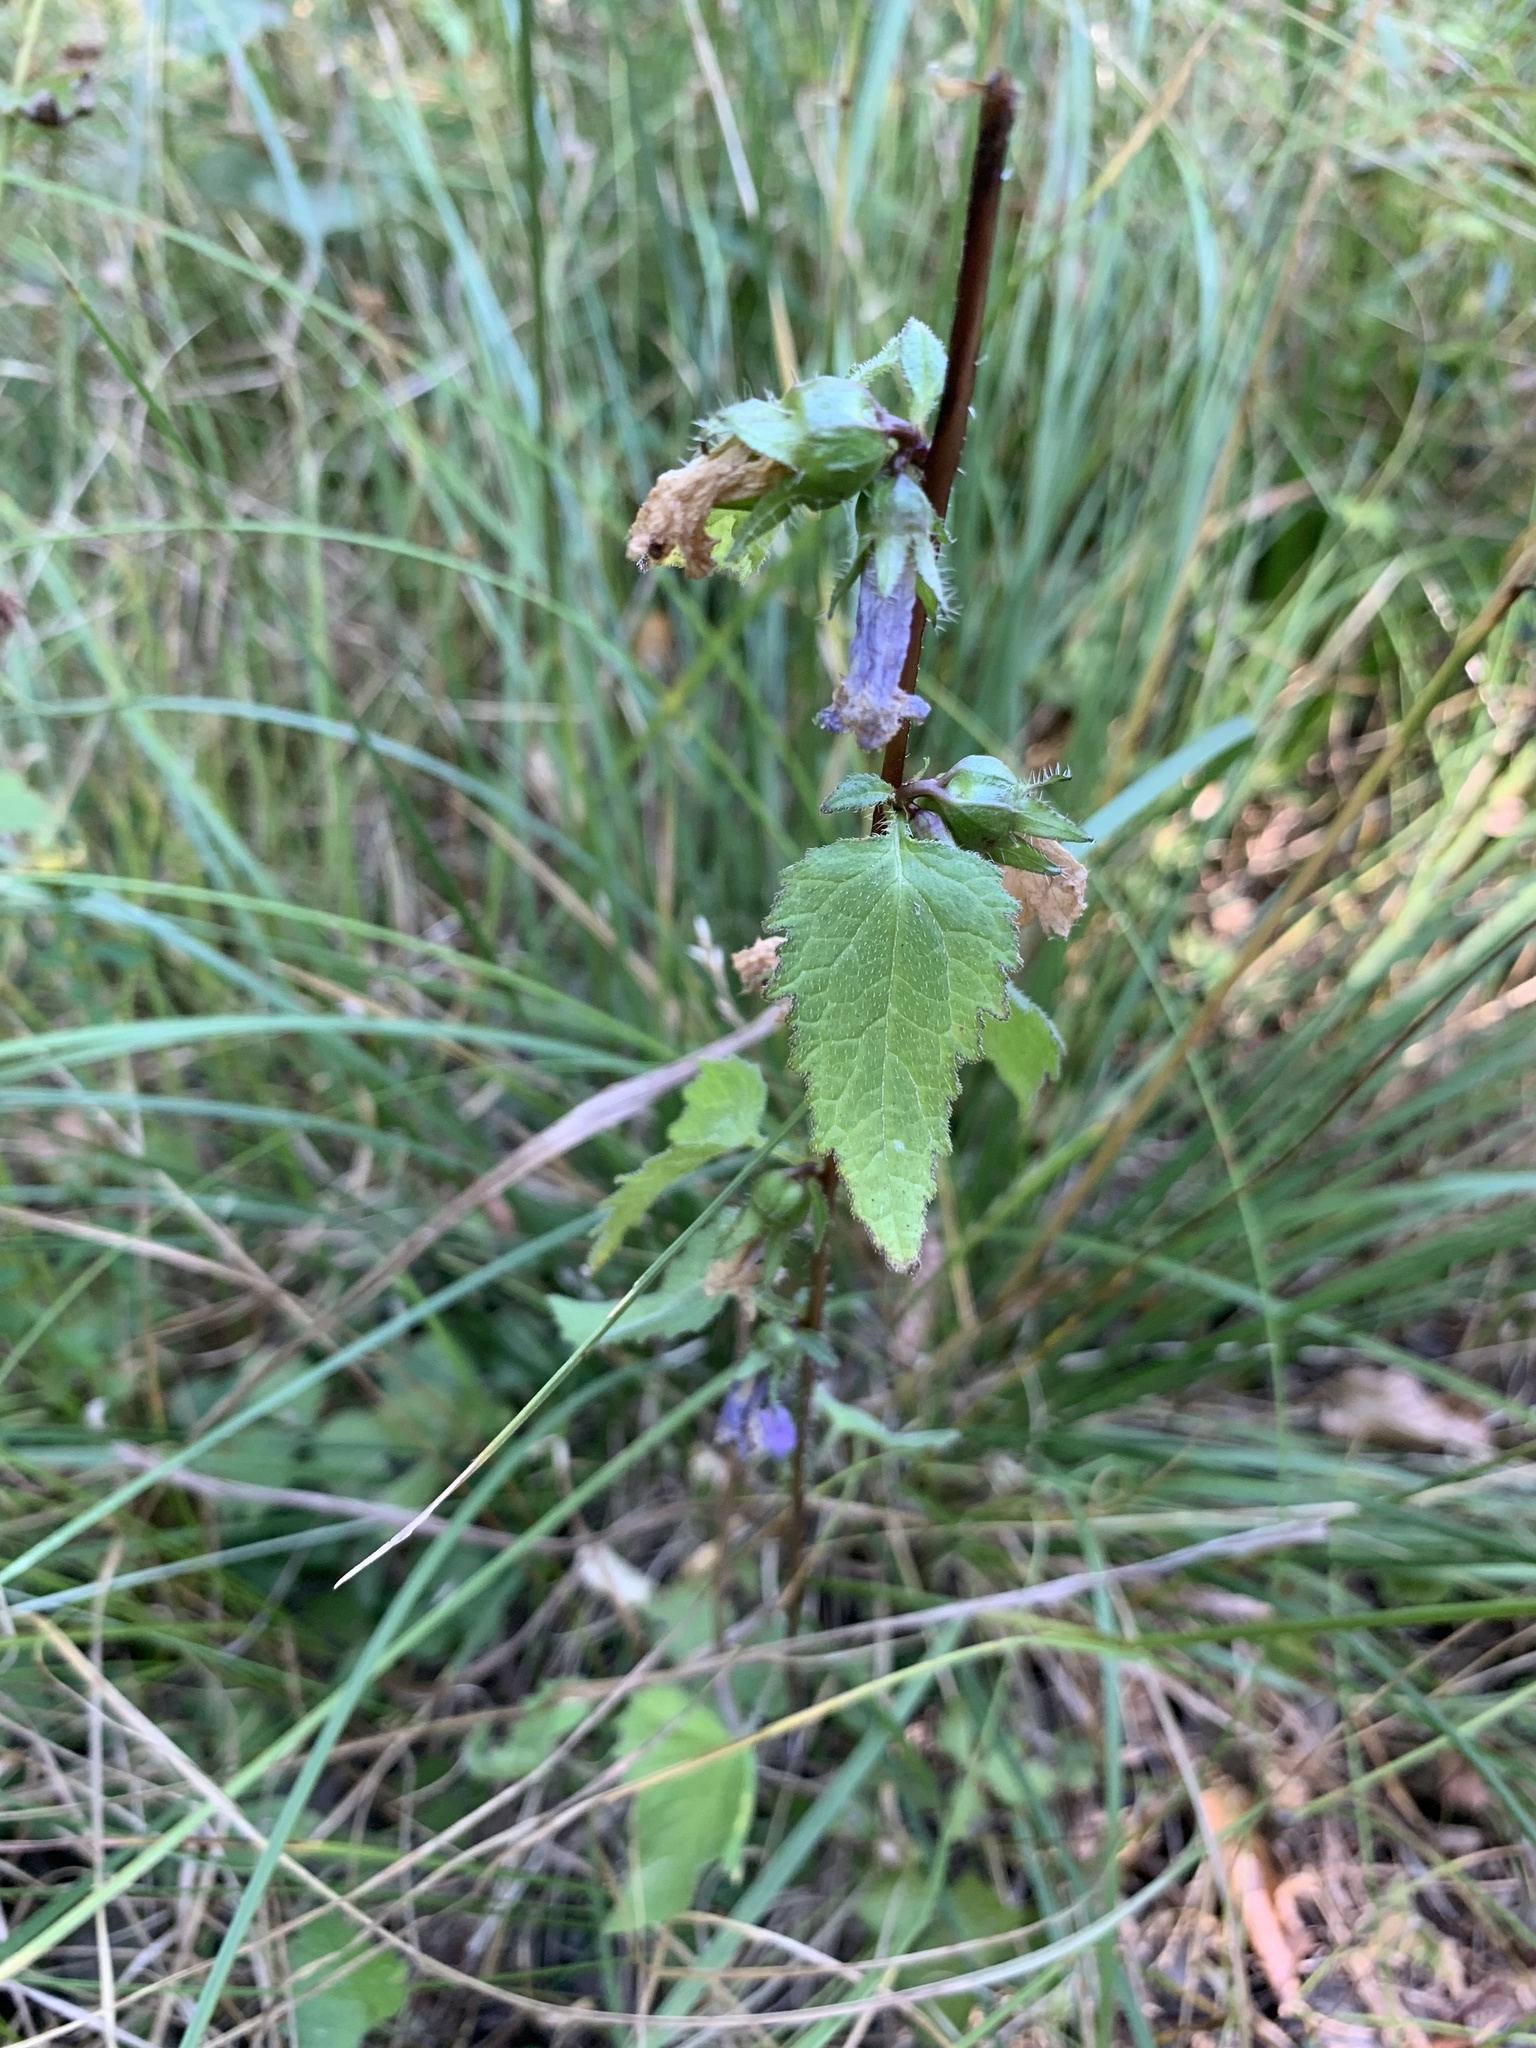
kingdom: Plantae
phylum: Tracheophyta
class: Magnoliopsida
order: Asterales
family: Campanulaceae
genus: Campanula
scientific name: Campanula trachelium
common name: Nettle-leaved bellflower
